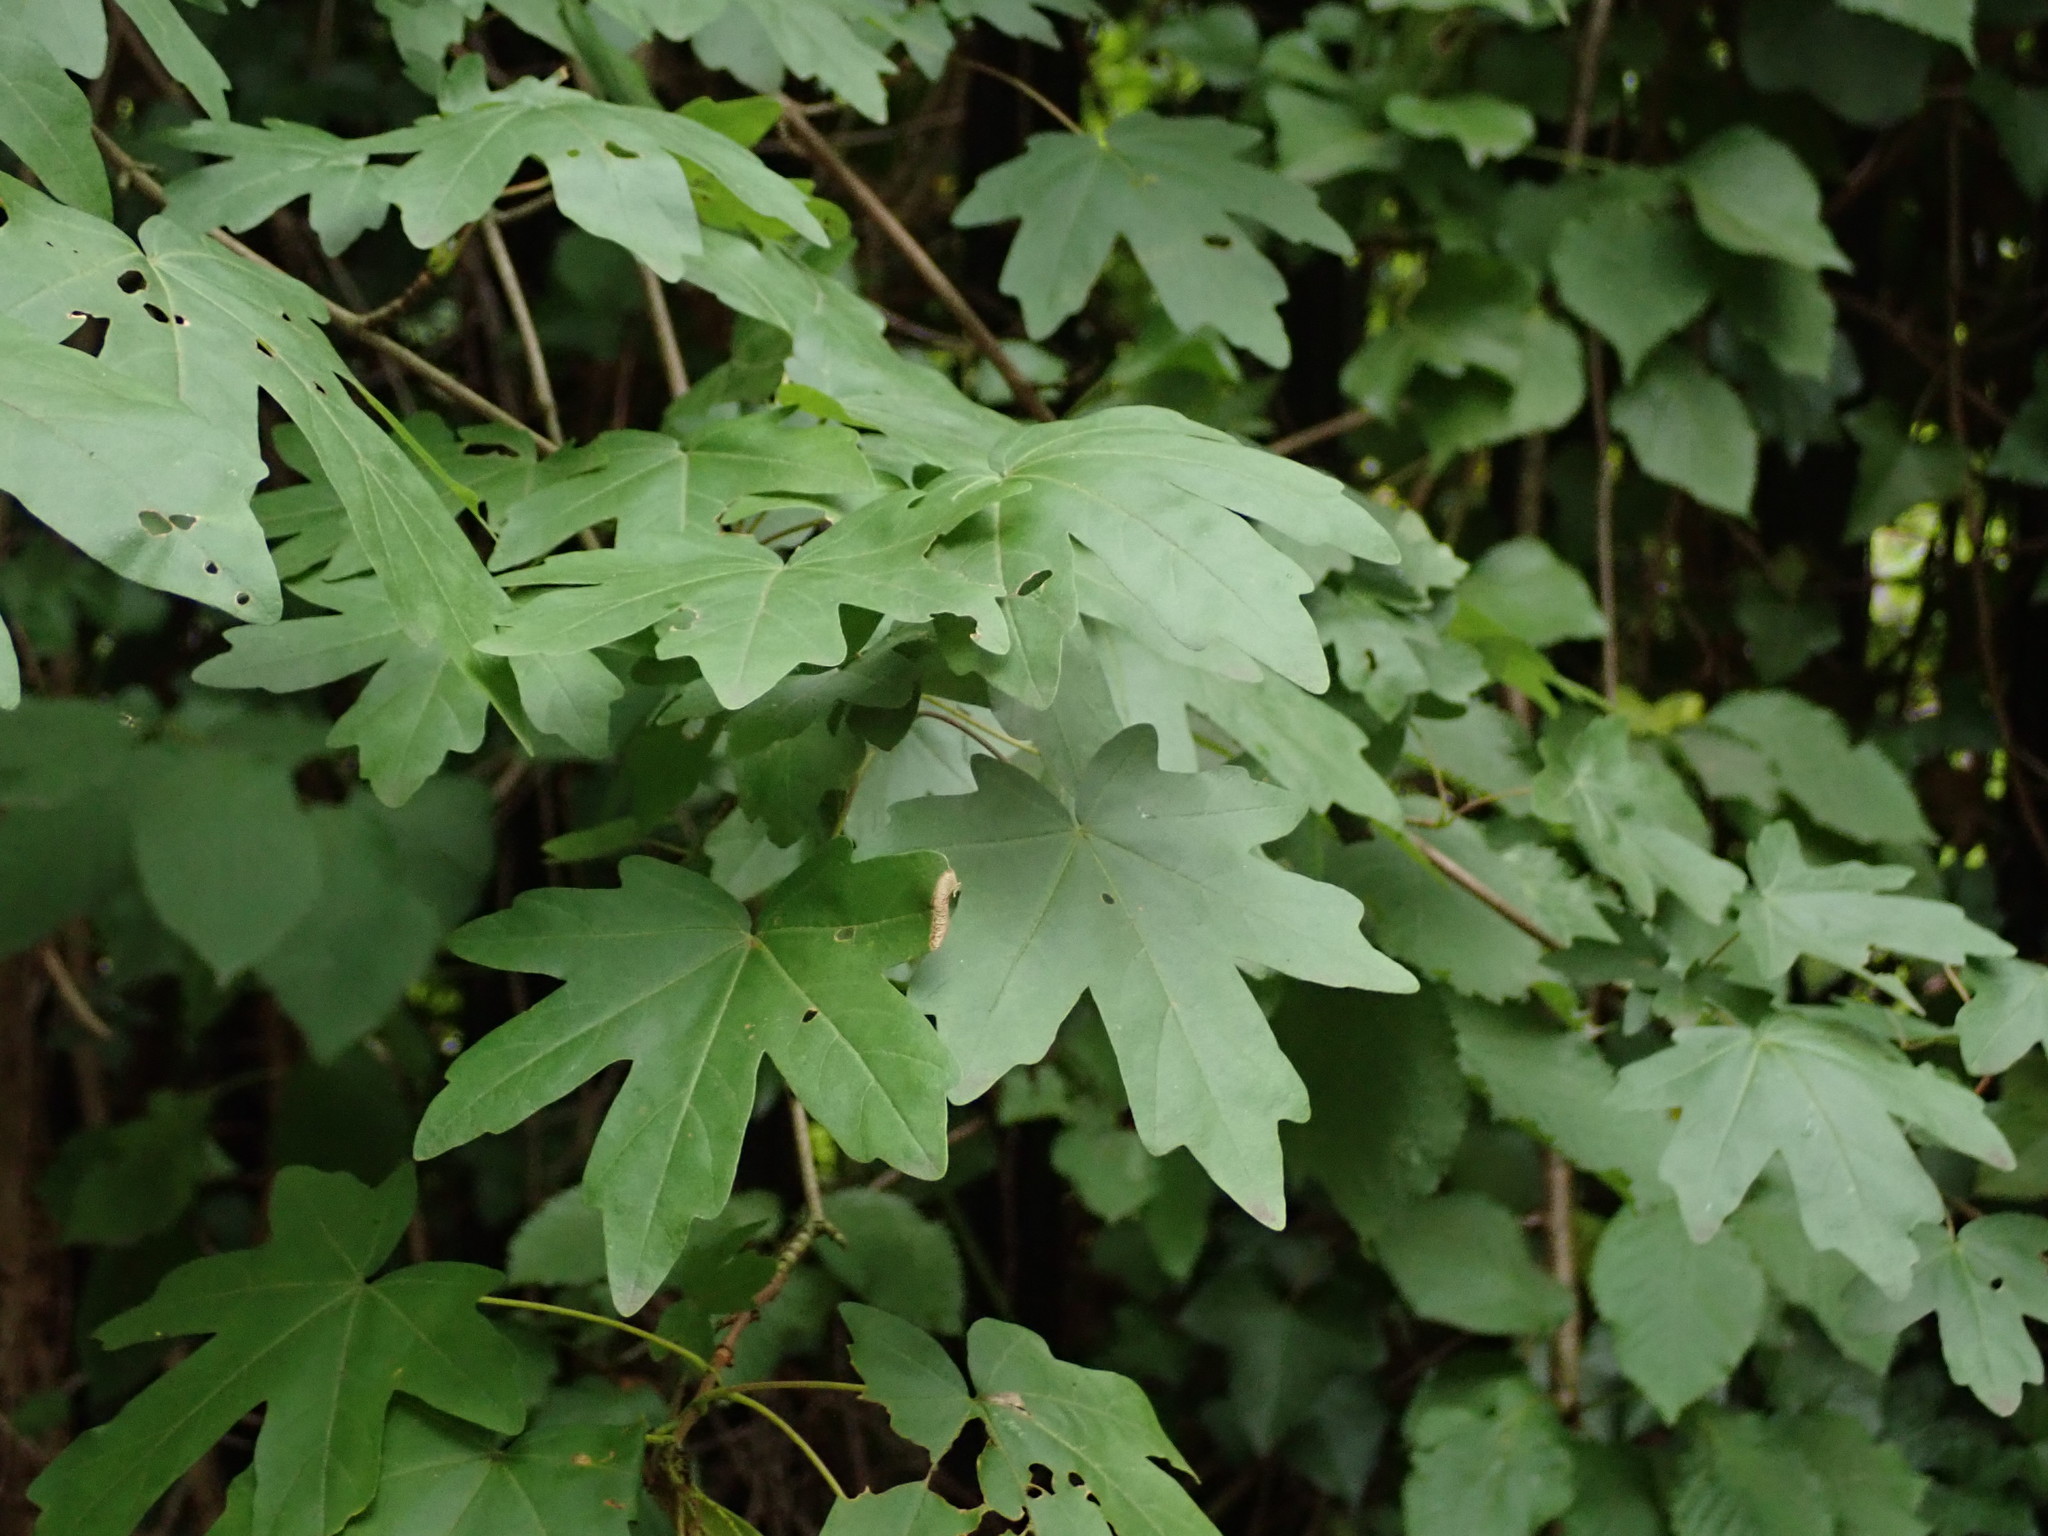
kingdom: Plantae
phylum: Tracheophyta
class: Magnoliopsida
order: Sapindales
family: Sapindaceae
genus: Acer
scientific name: Acer campestre
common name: Field maple
